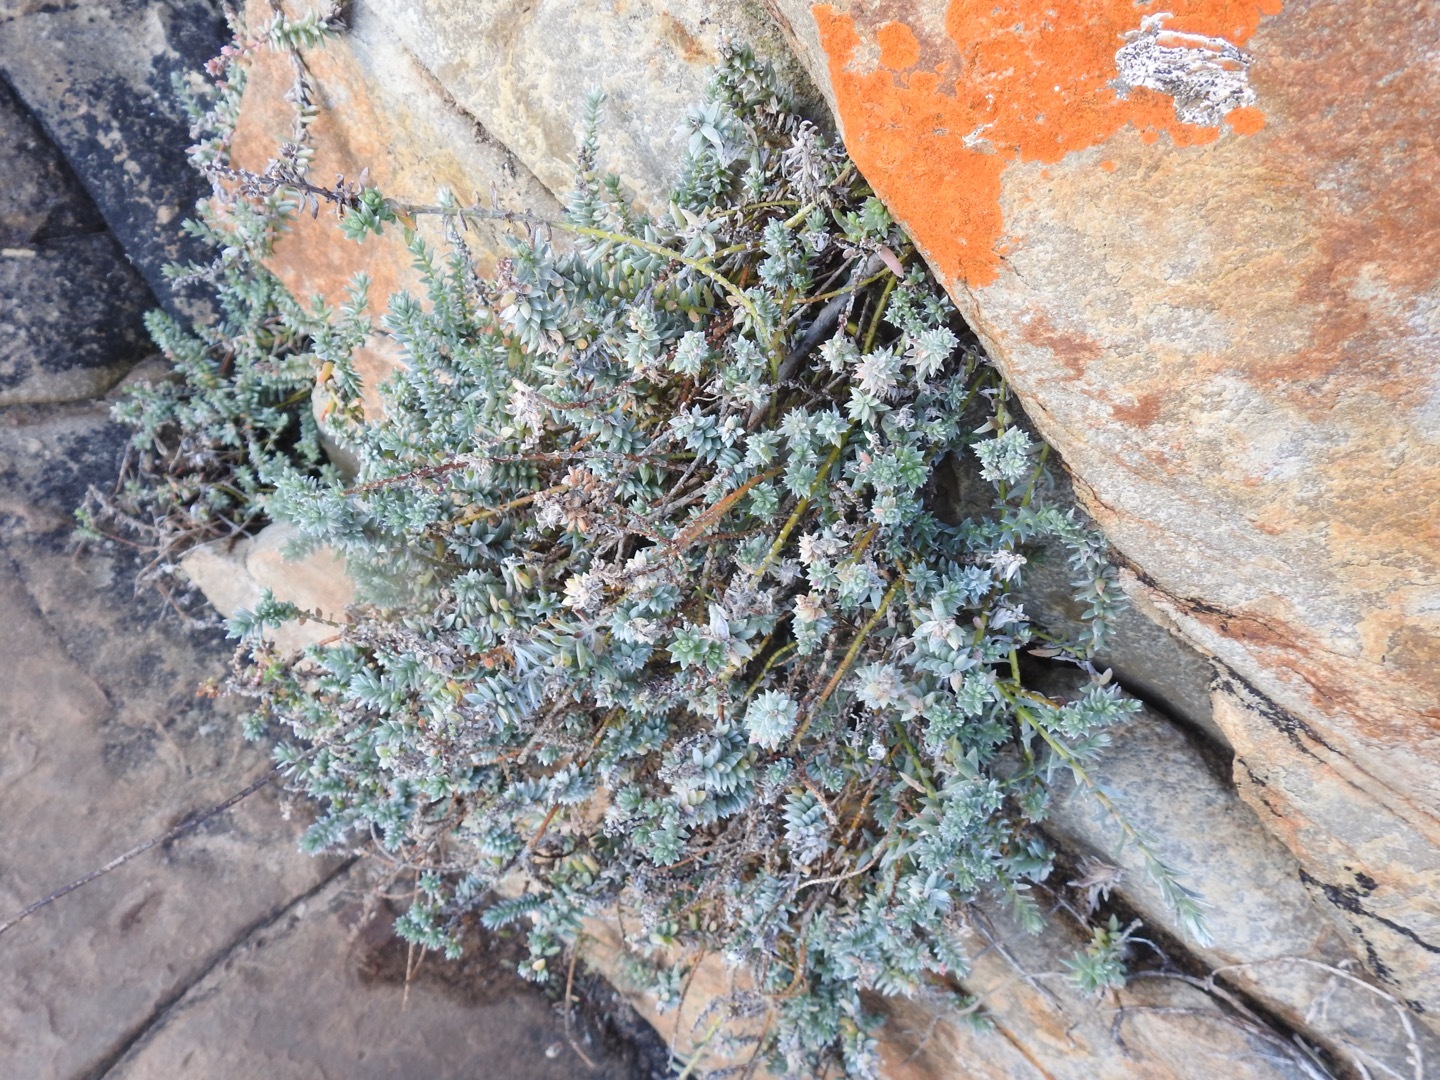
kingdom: Plantae
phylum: Tracheophyta
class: Magnoliopsida
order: Caryophyllales
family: Amaranthaceae
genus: Chenolea
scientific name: Chenolea diffusa
